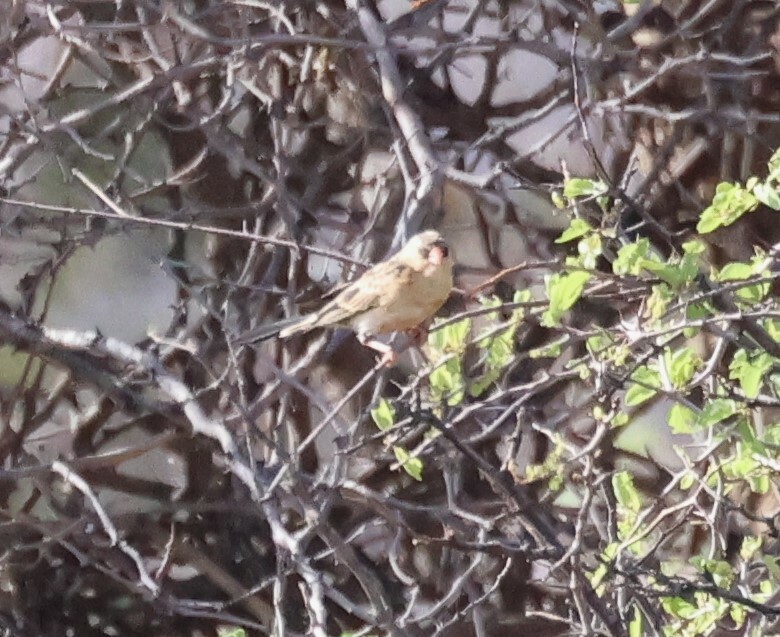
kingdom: Animalia
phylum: Chordata
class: Aves
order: Passeriformes
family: Viduidae
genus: Vidua
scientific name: Vidua regia
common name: Shaft-tailed whydah
